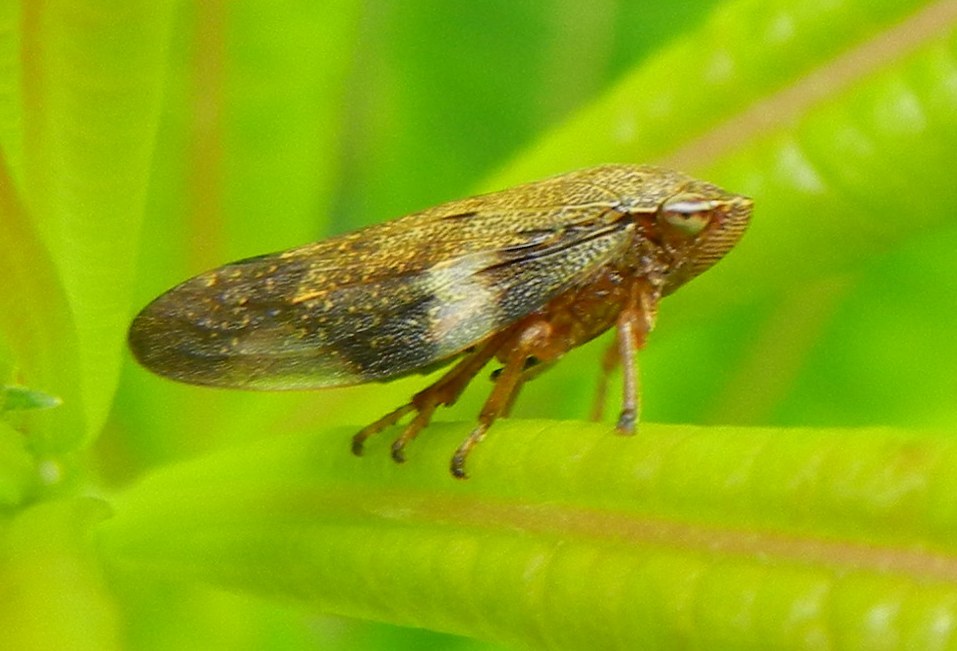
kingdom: Animalia
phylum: Arthropoda
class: Insecta
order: Hemiptera
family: Aphrophoridae
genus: Aphrophora
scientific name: Aphrophora alni
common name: European alder spittlebug
